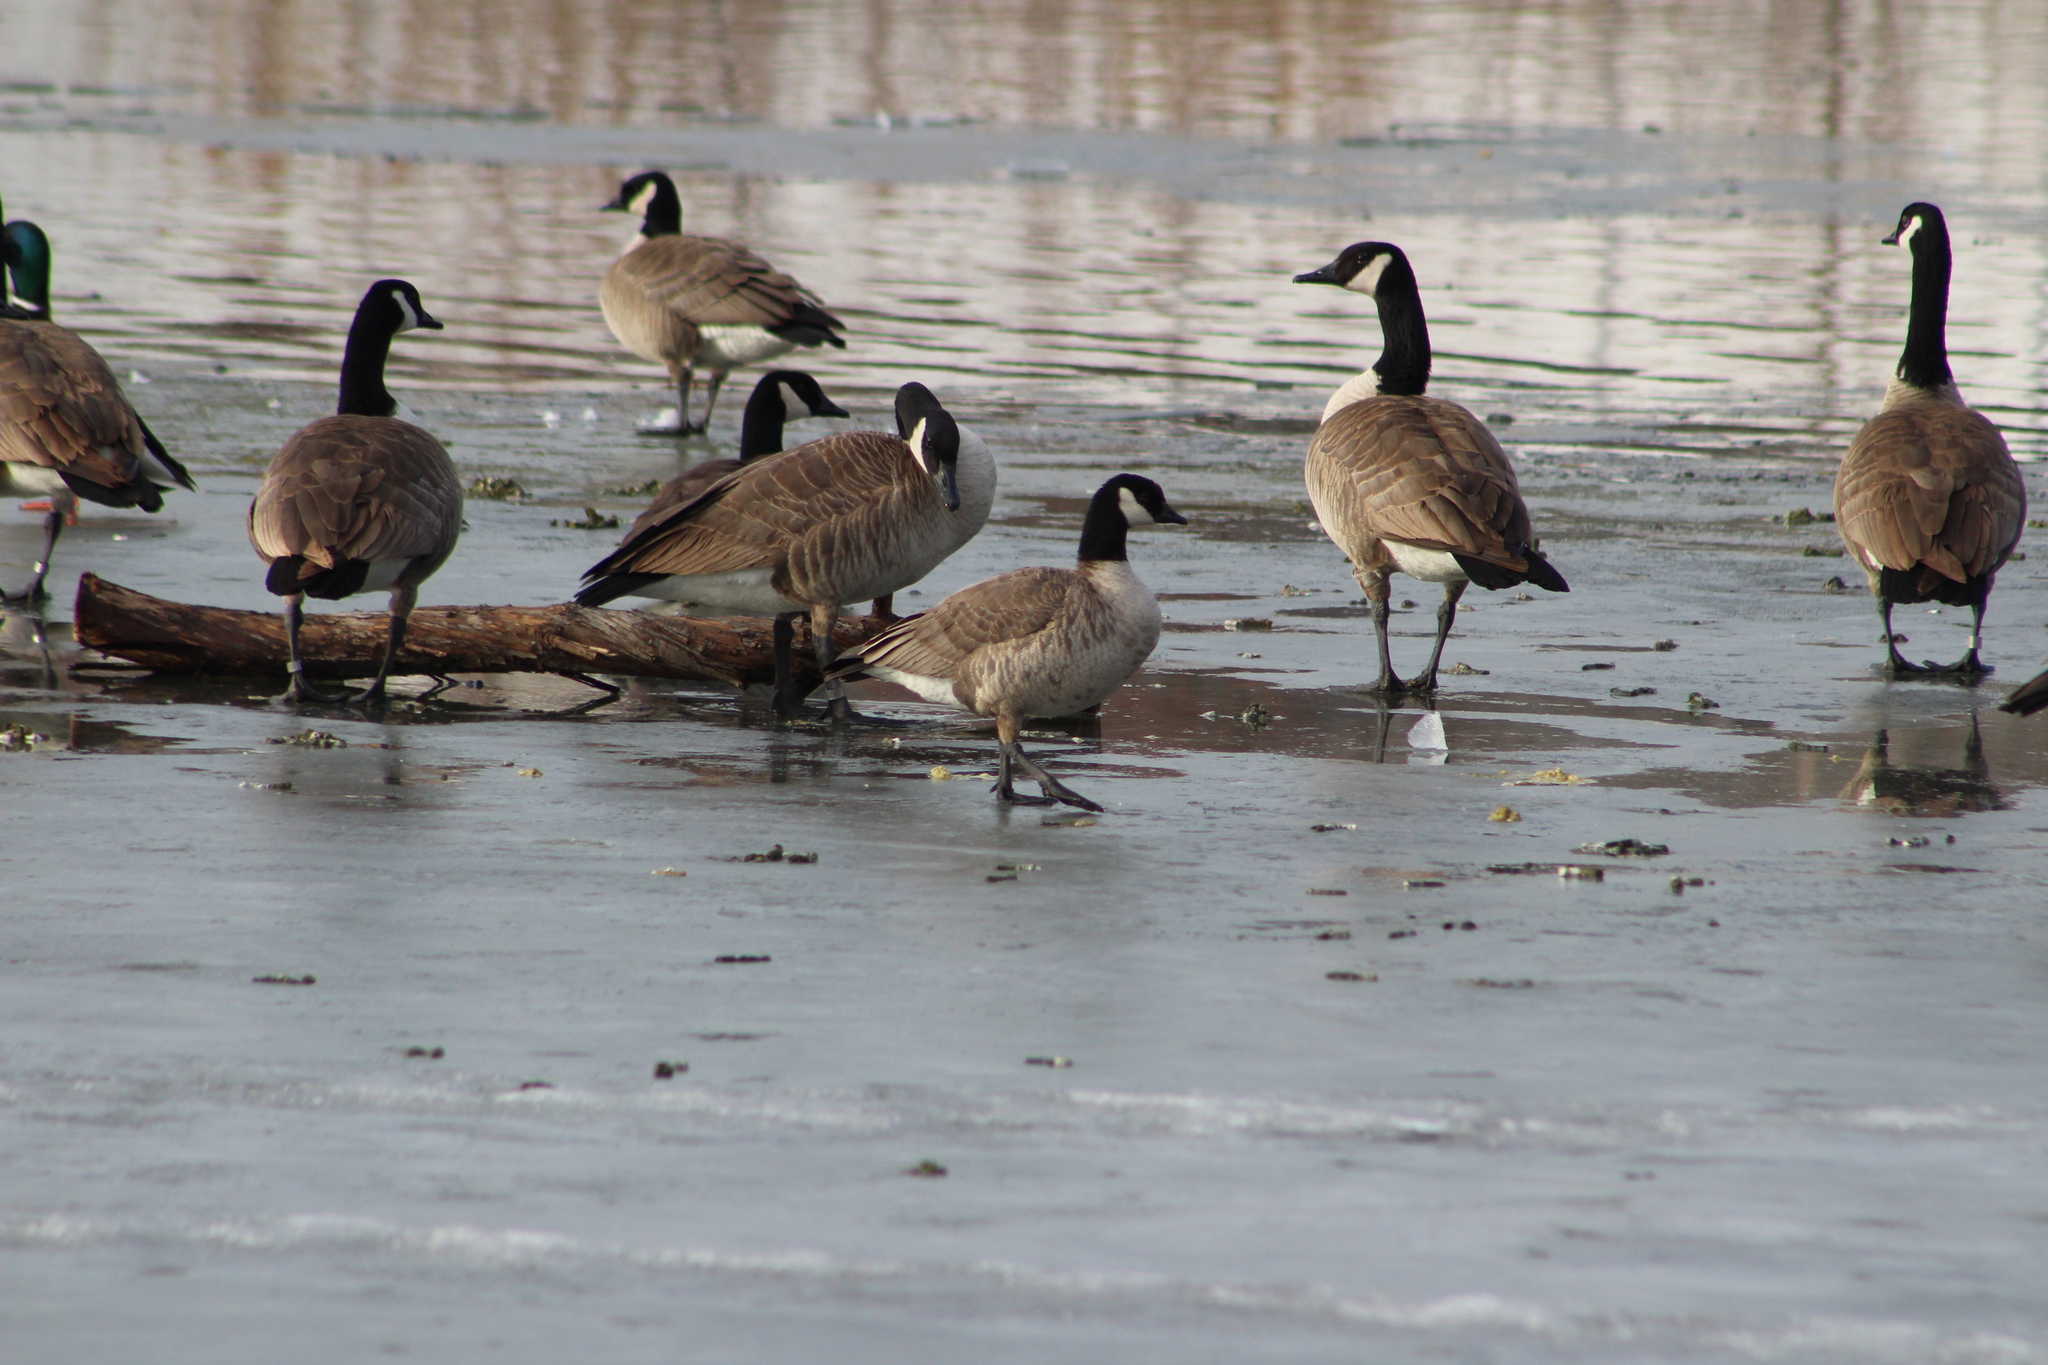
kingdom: Animalia
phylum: Chordata
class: Aves
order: Anseriformes
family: Anatidae
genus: Branta
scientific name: Branta hutchinsii
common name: Cackling goose
